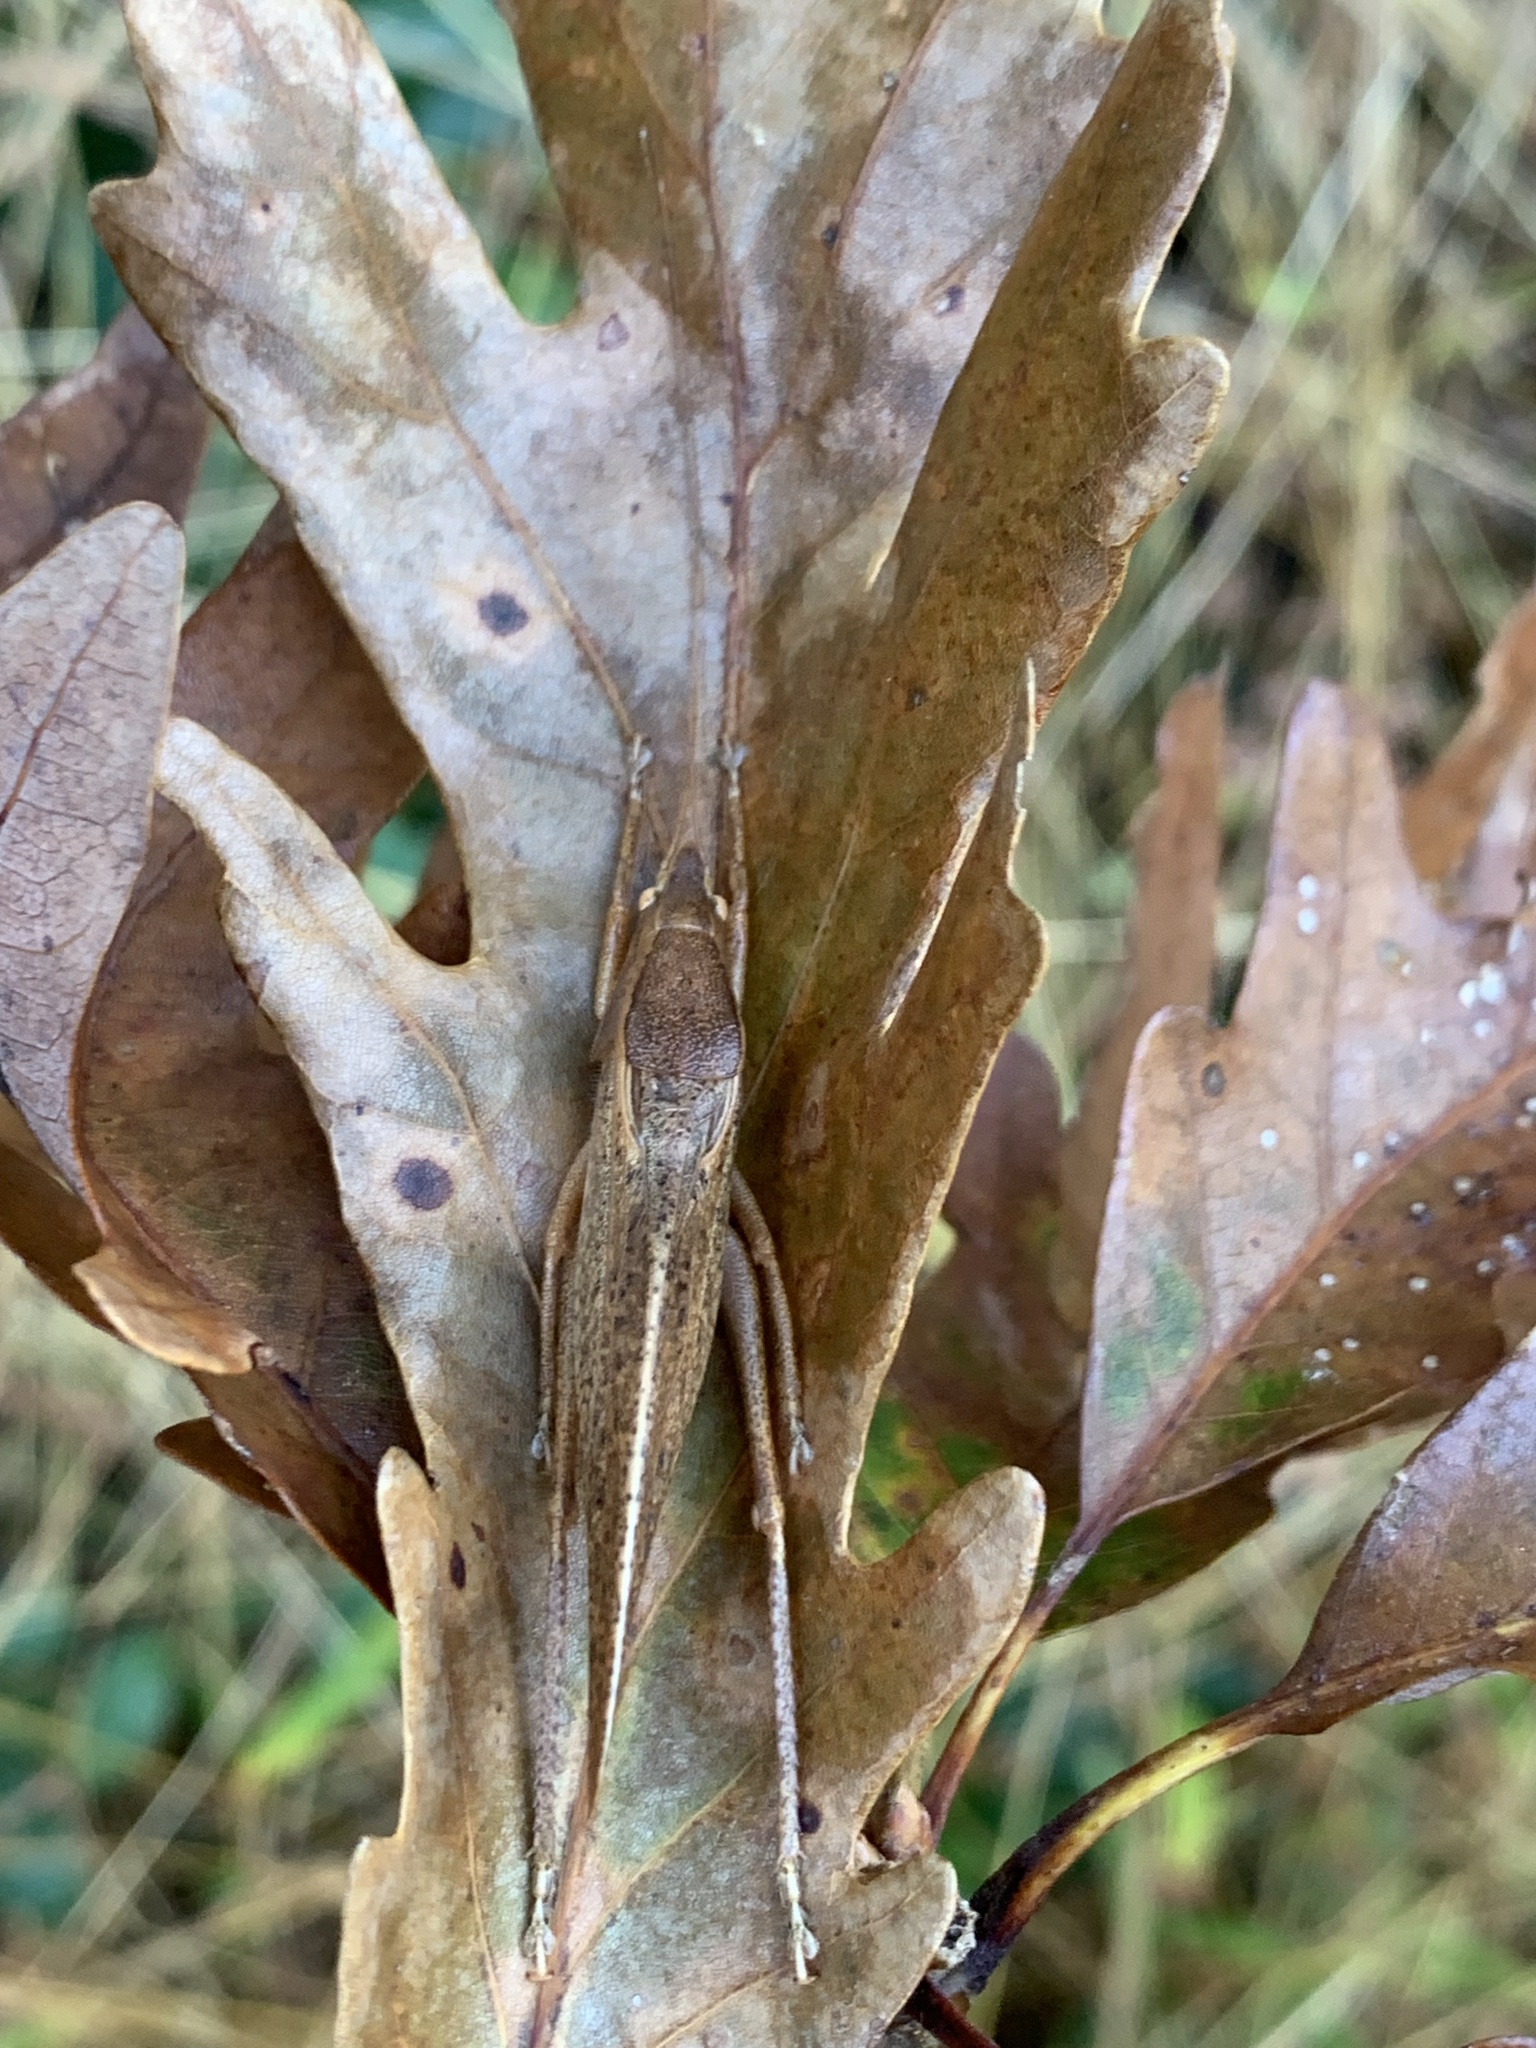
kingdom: Animalia
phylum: Arthropoda
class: Insecta
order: Orthoptera
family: Tettigoniidae
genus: Pyrgocorypha
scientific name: Pyrgocorypha uncinata
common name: Hook-faced conehead
